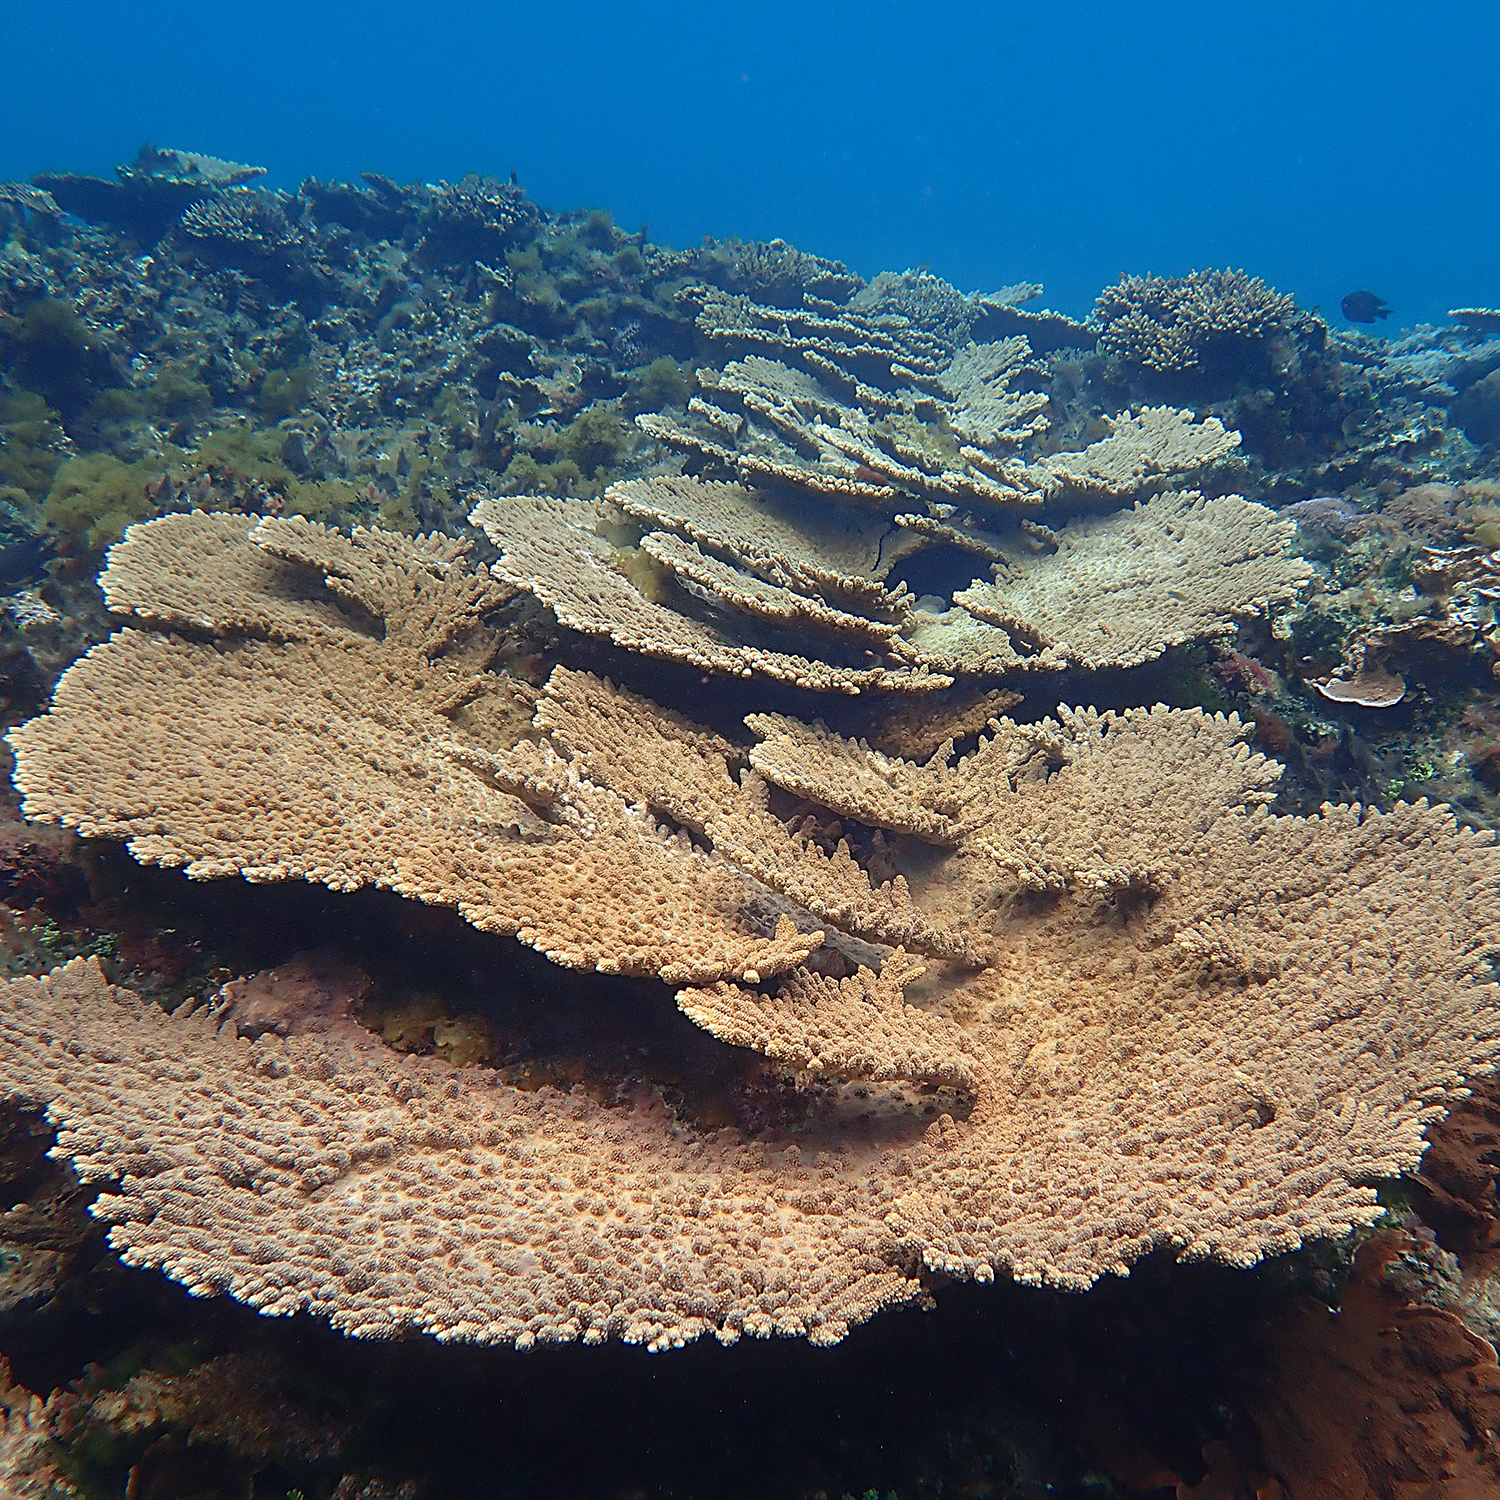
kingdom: Animalia
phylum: Cnidaria
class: Anthozoa
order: Scleractinia
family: Acroporidae
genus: Acropora
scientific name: Acropora solitaryensis
